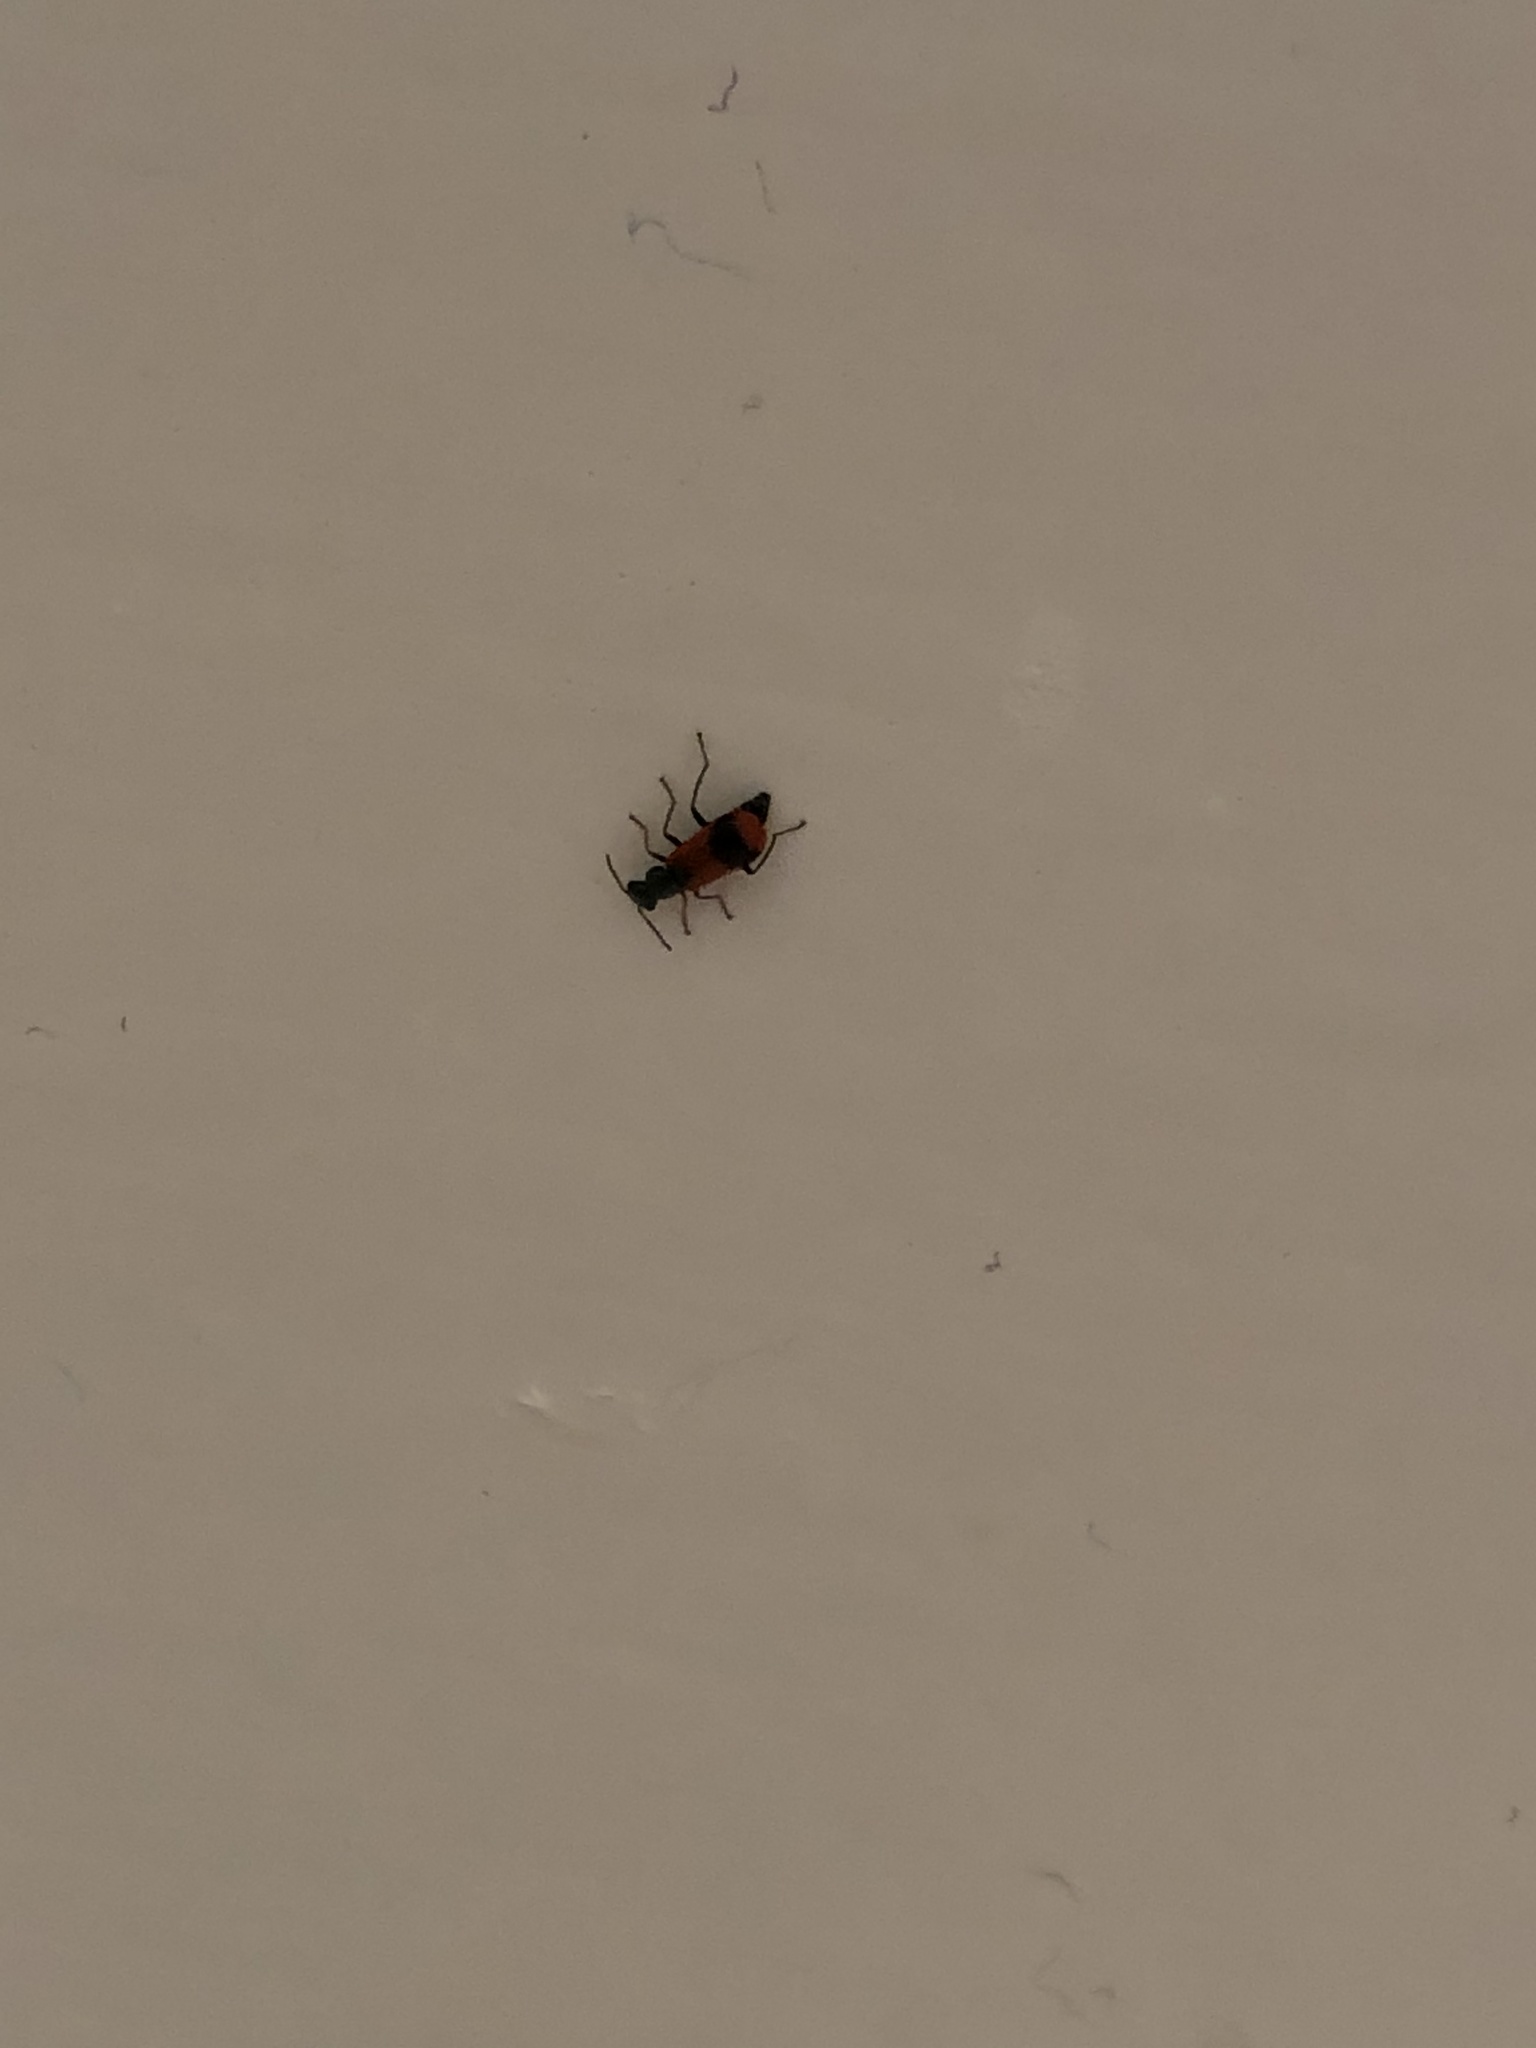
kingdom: Animalia
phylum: Arthropoda
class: Insecta
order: Coleoptera
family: Melyridae
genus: Anthocomus
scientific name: Anthocomus equestris
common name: Black-banded soft-winged flower beetle
